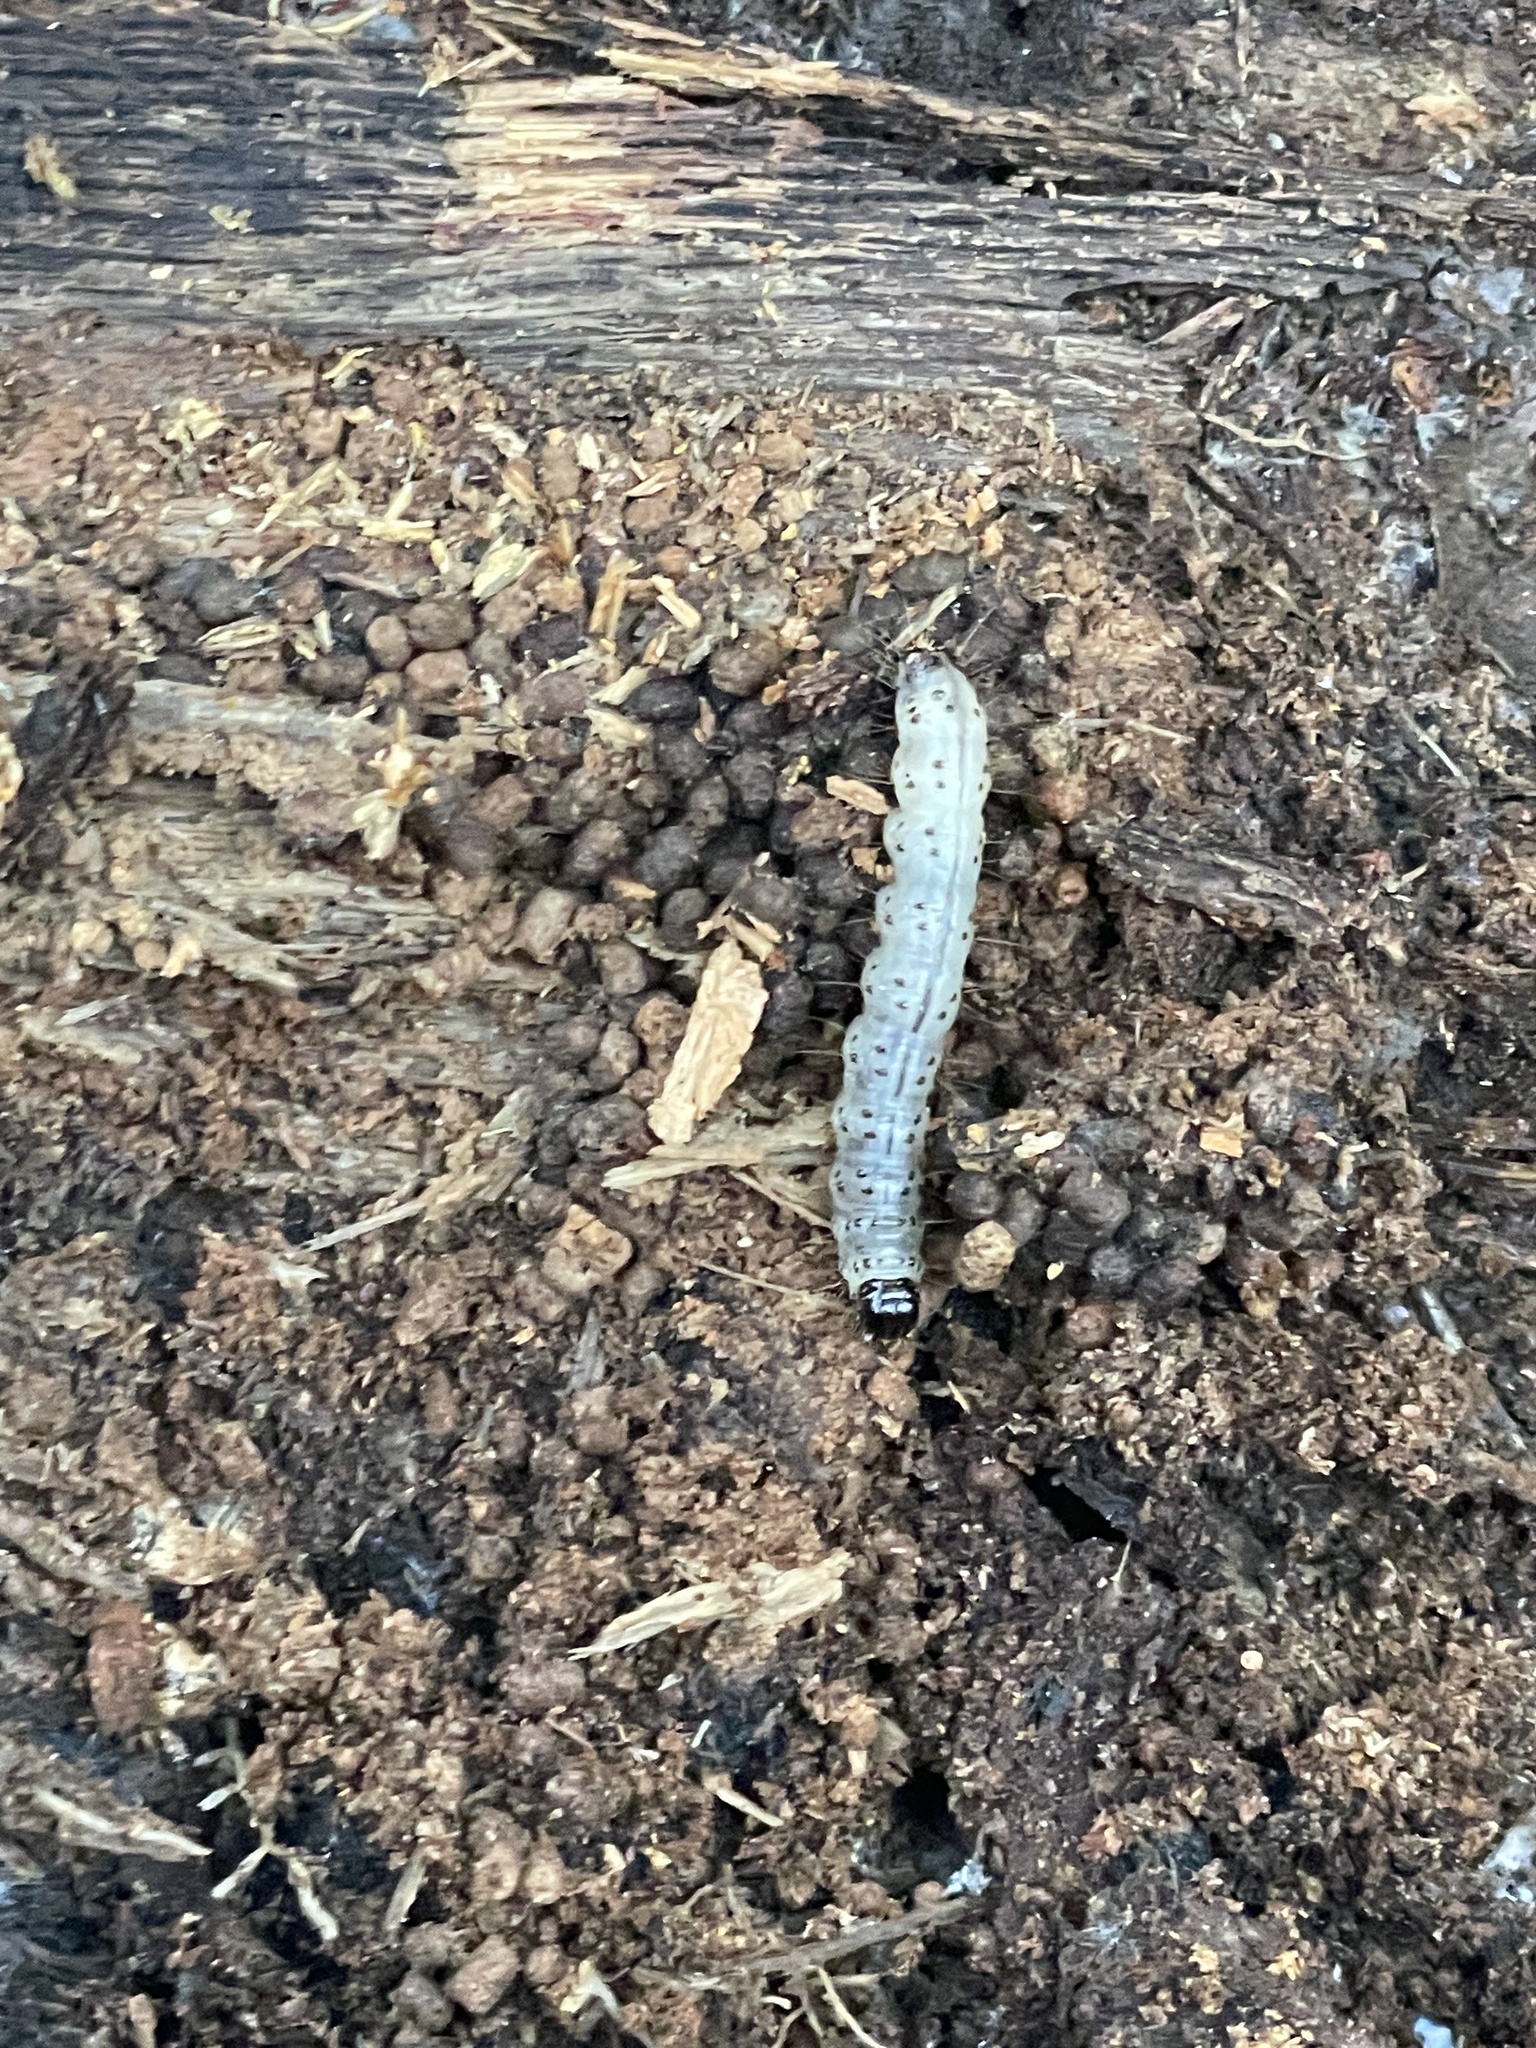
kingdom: Animalia
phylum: Arthropoda
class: Insecta
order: Lepidoptera
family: Erebidae
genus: Scolecocampa
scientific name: Scolecocampa liburna
